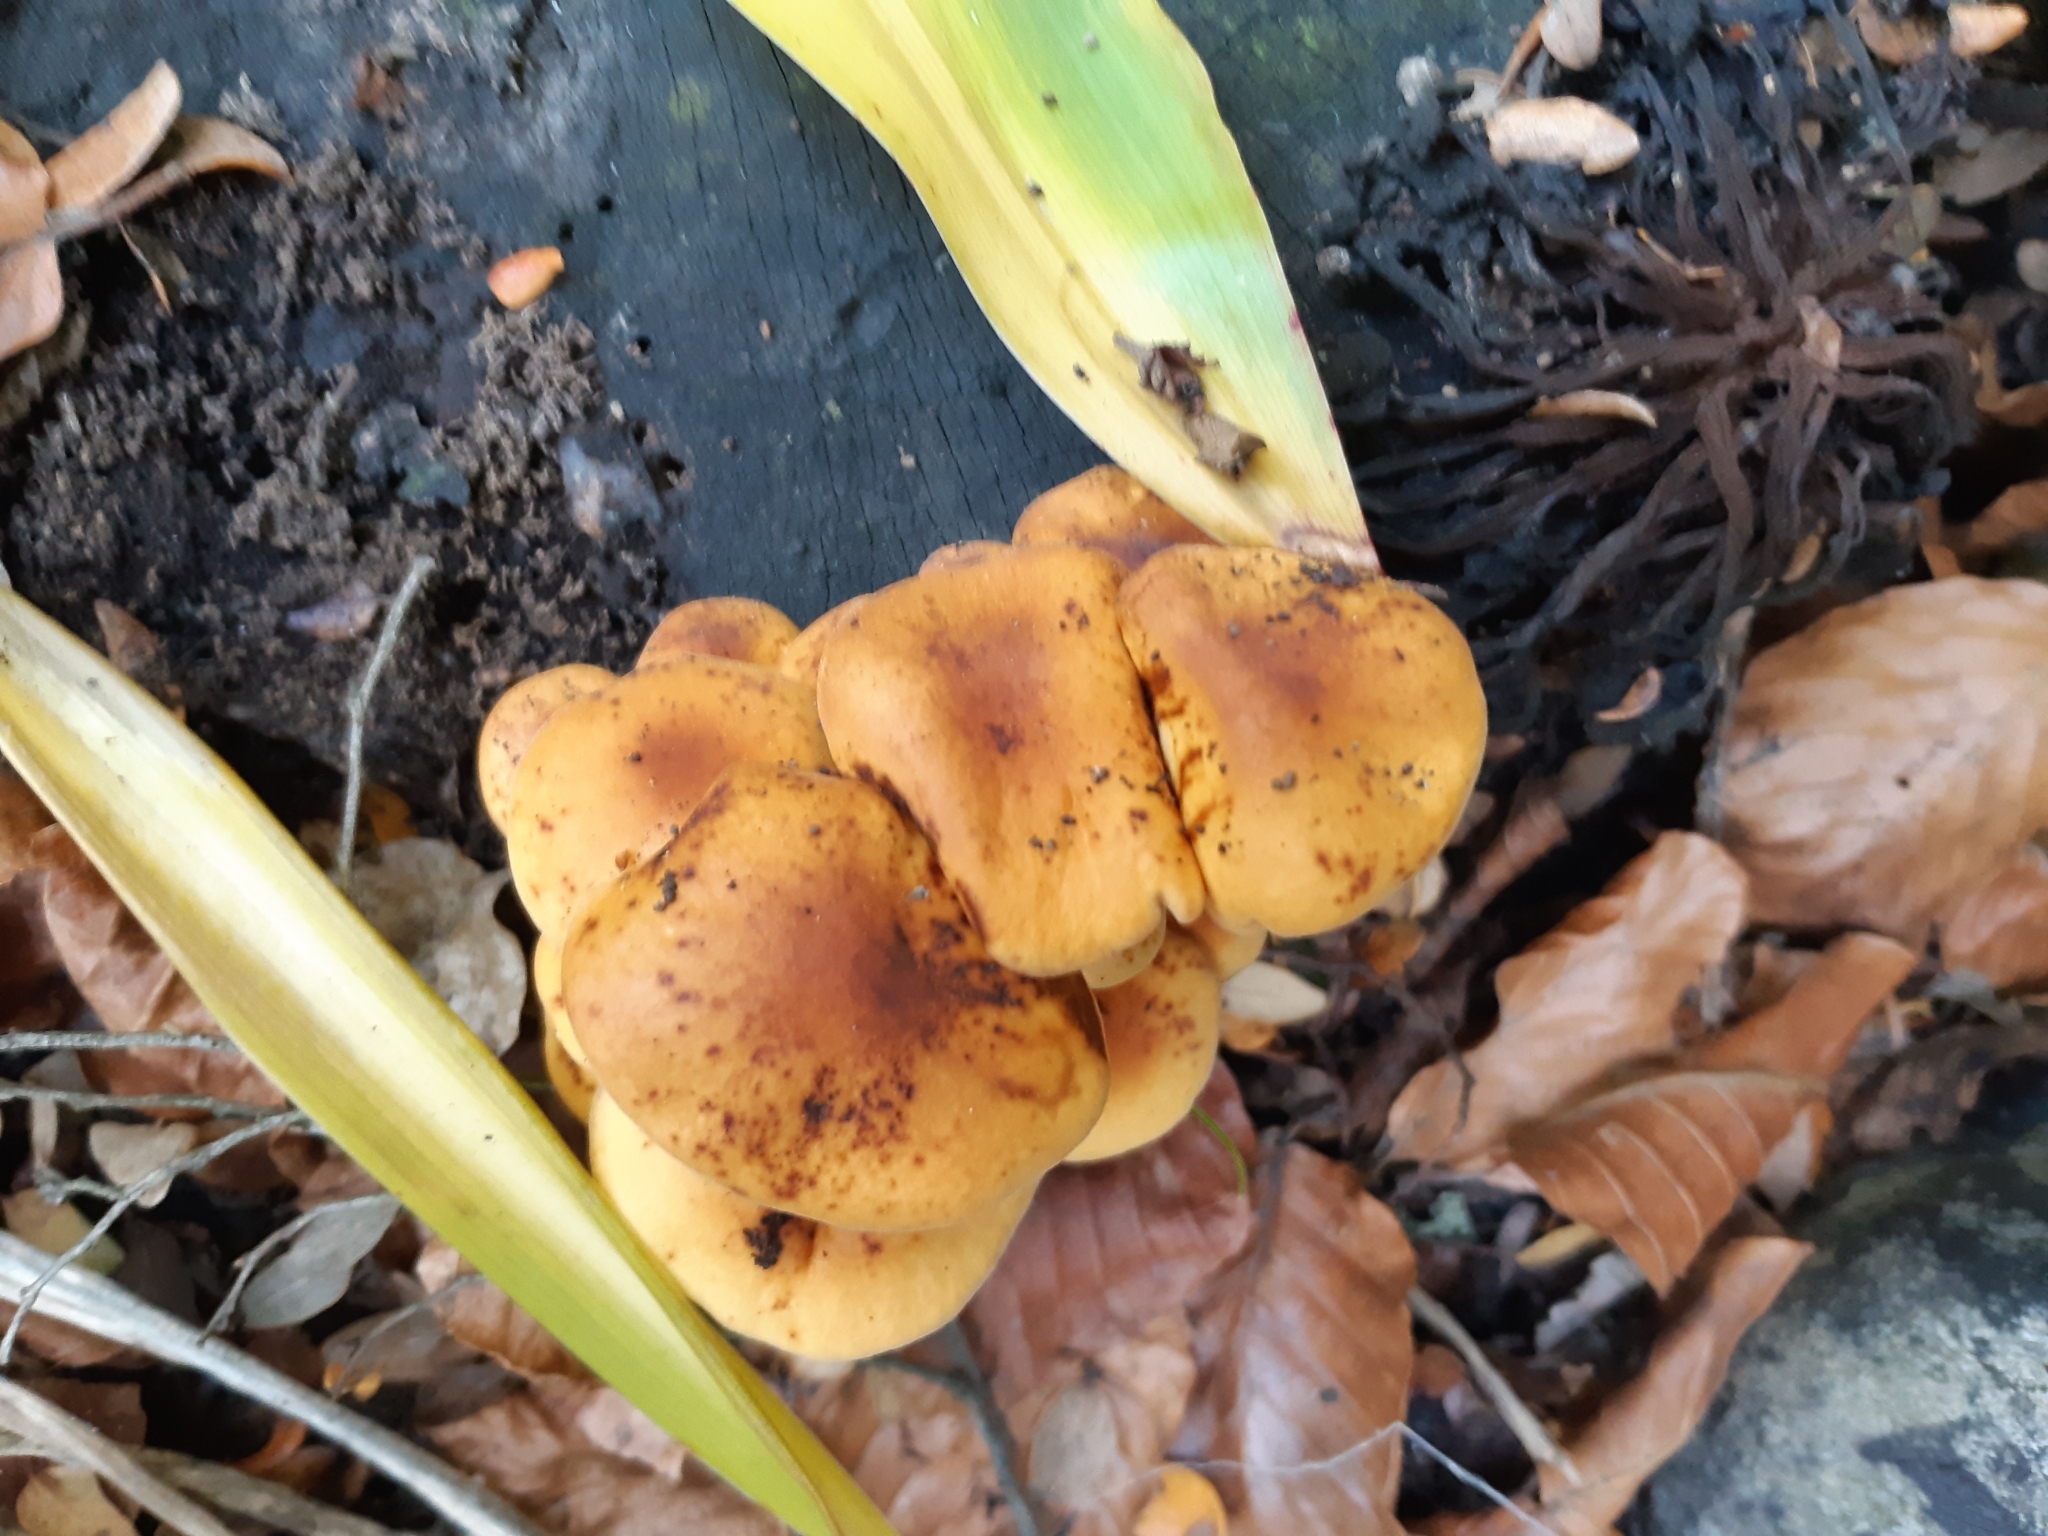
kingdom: Fungi
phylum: Basidiomycota
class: Agaricomycetes
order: Agaricales
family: Physalacriaceae
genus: Flammulina
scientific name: Flammulina velutipes
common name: Velvet shank
